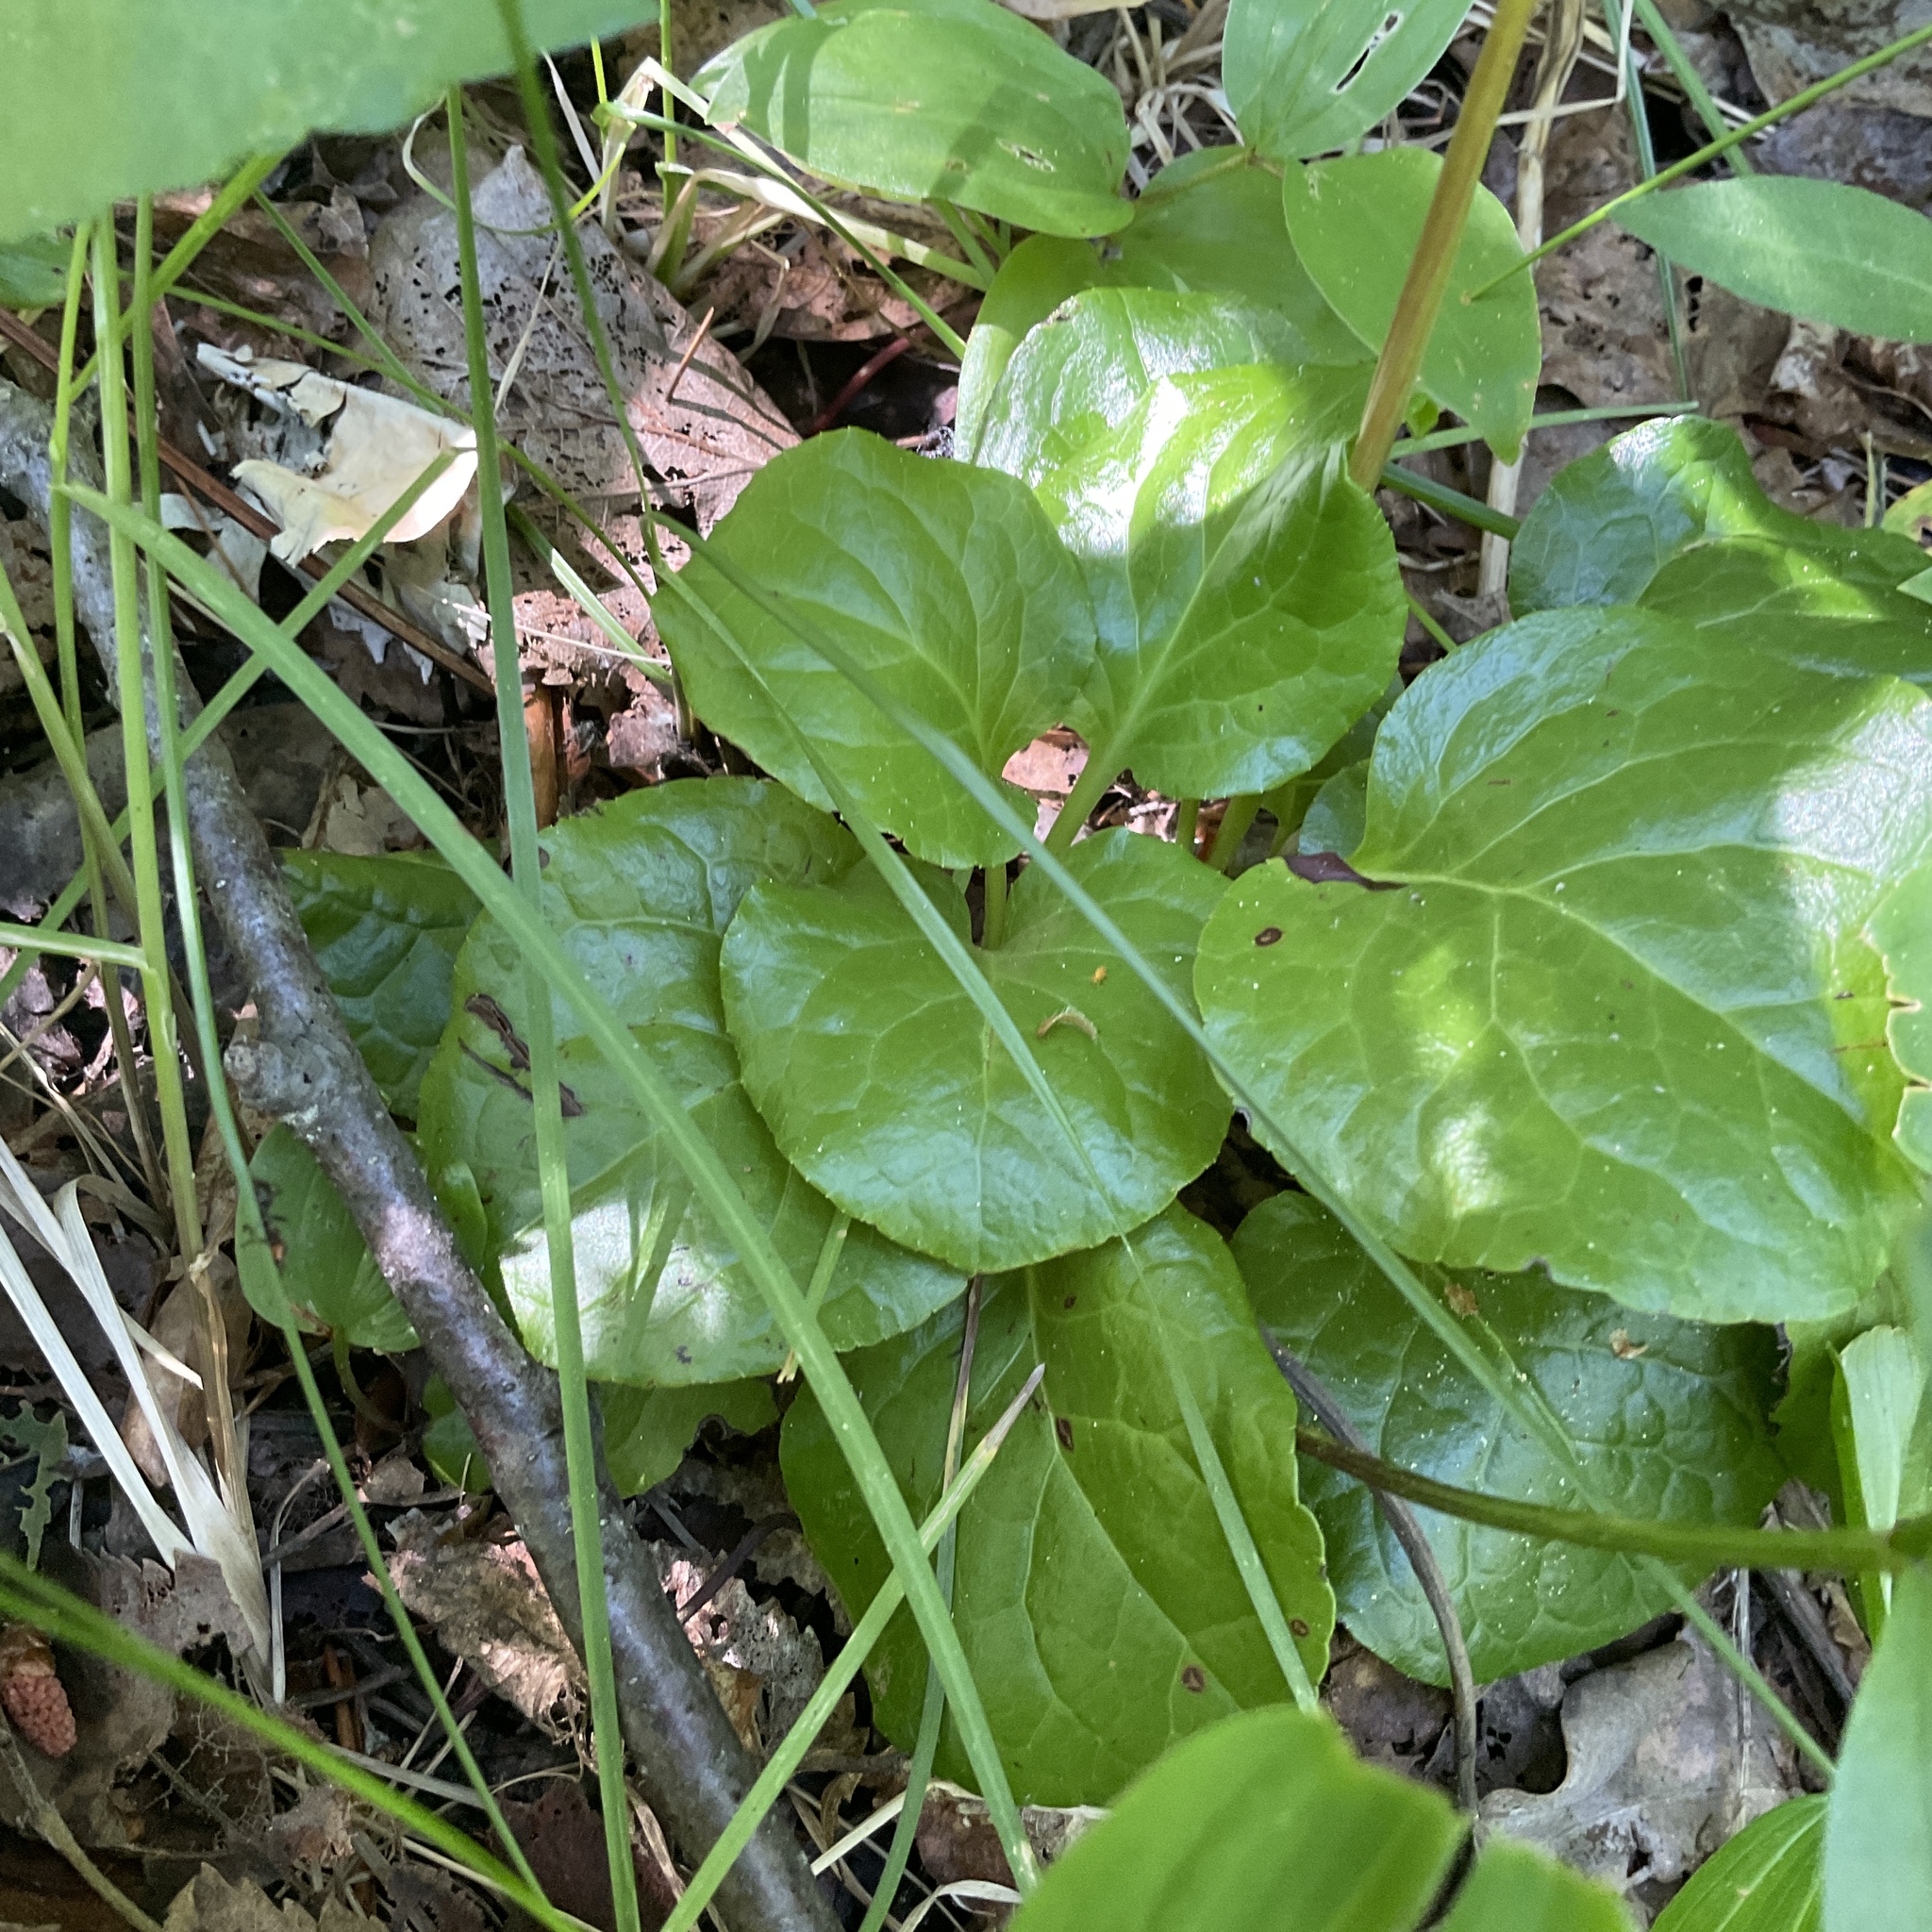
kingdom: Plantae
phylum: Tracheophyta
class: Magnoliopsida
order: Ericales
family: Ericaceae
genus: Pyrola
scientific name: Pyrola asarifolia
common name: Bog wintergreen
